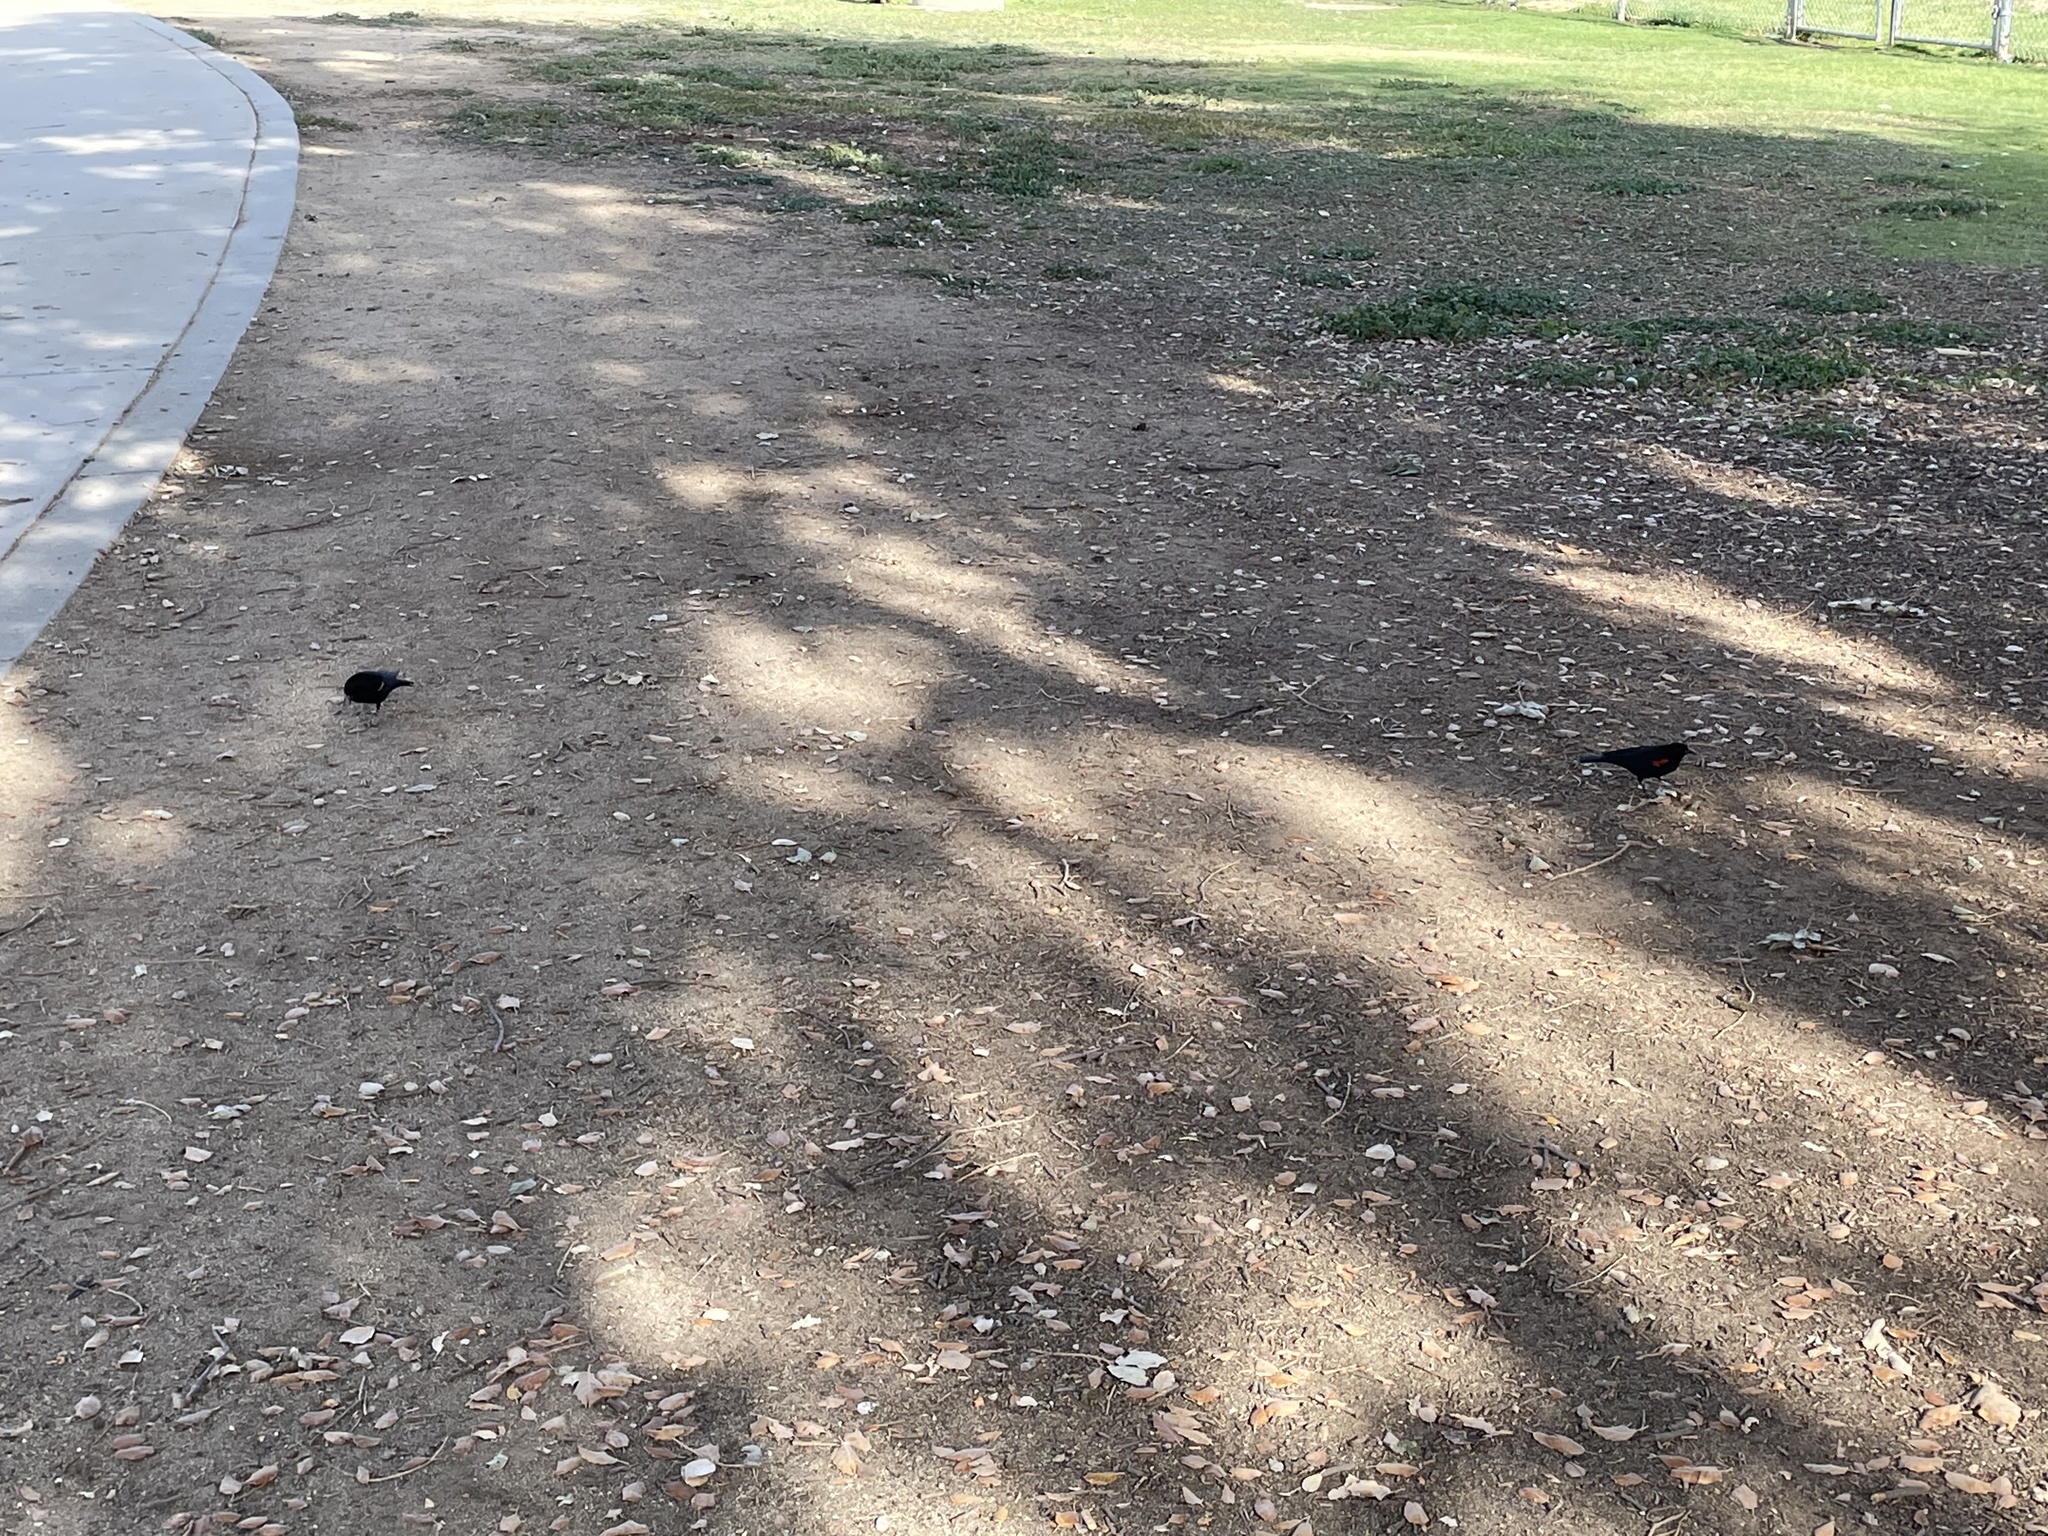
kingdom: Animalia
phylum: Chordata
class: Aves
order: Passeriformes
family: Icteridae
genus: Agelaius
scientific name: Agelaius phoeniceus
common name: Red-winged blackbird
